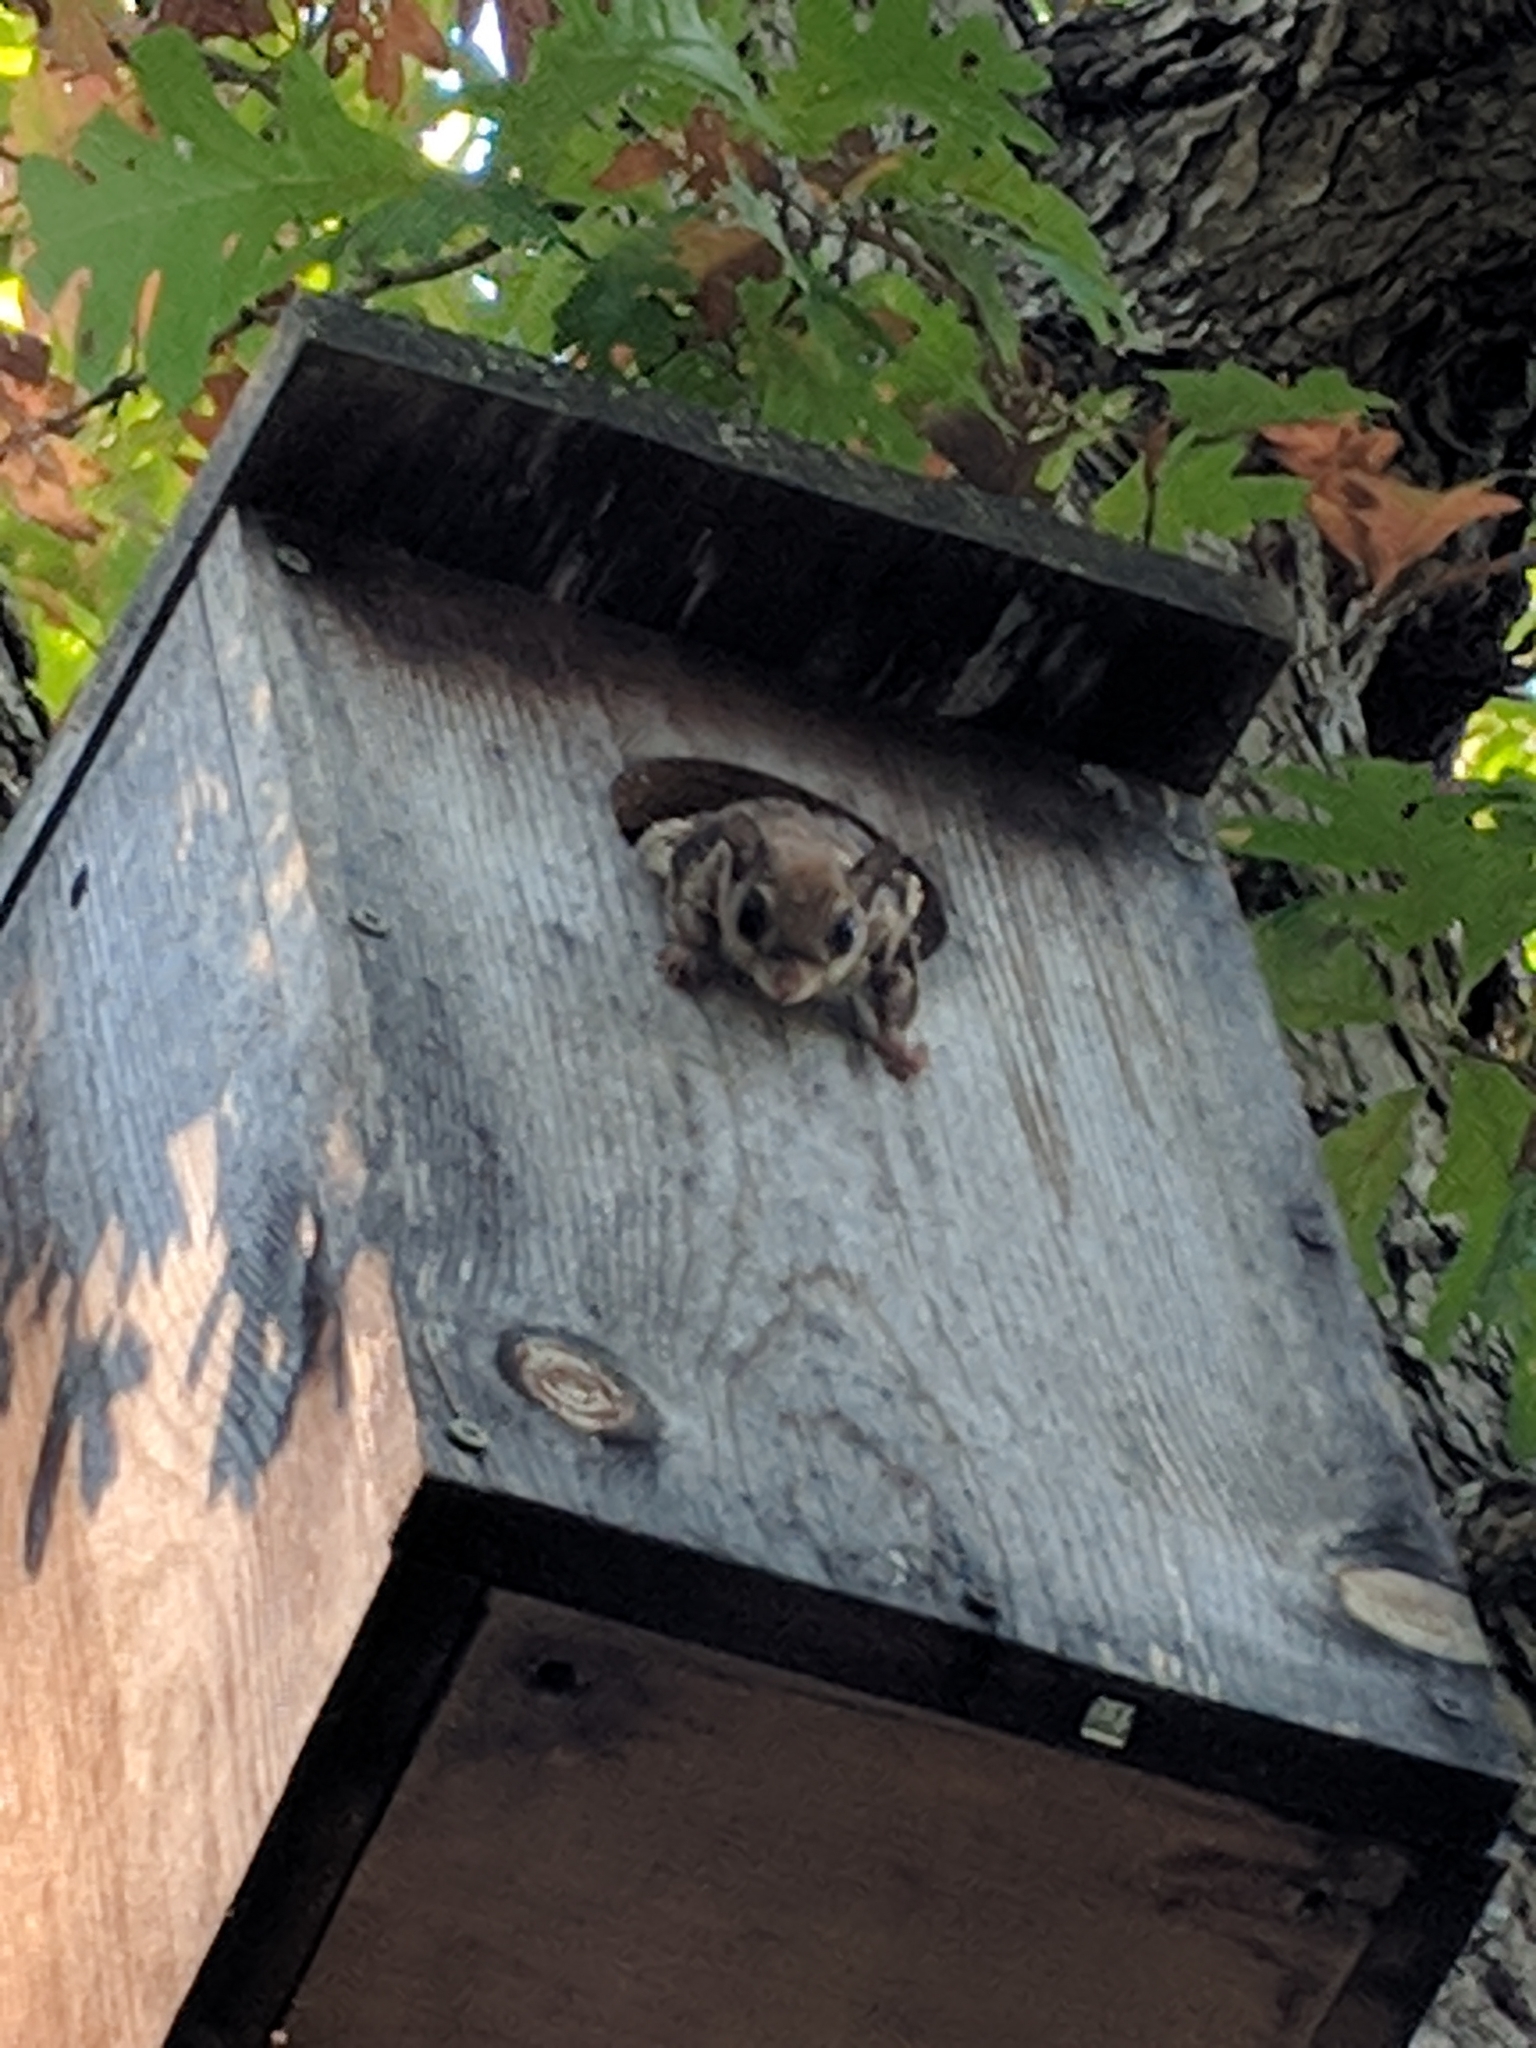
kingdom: Animalia
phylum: Chordata
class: Mammalia
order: Rodentia
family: Sciuridae
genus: Glaucomys
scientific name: Glaucomys volans
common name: Southern flying squirrel
